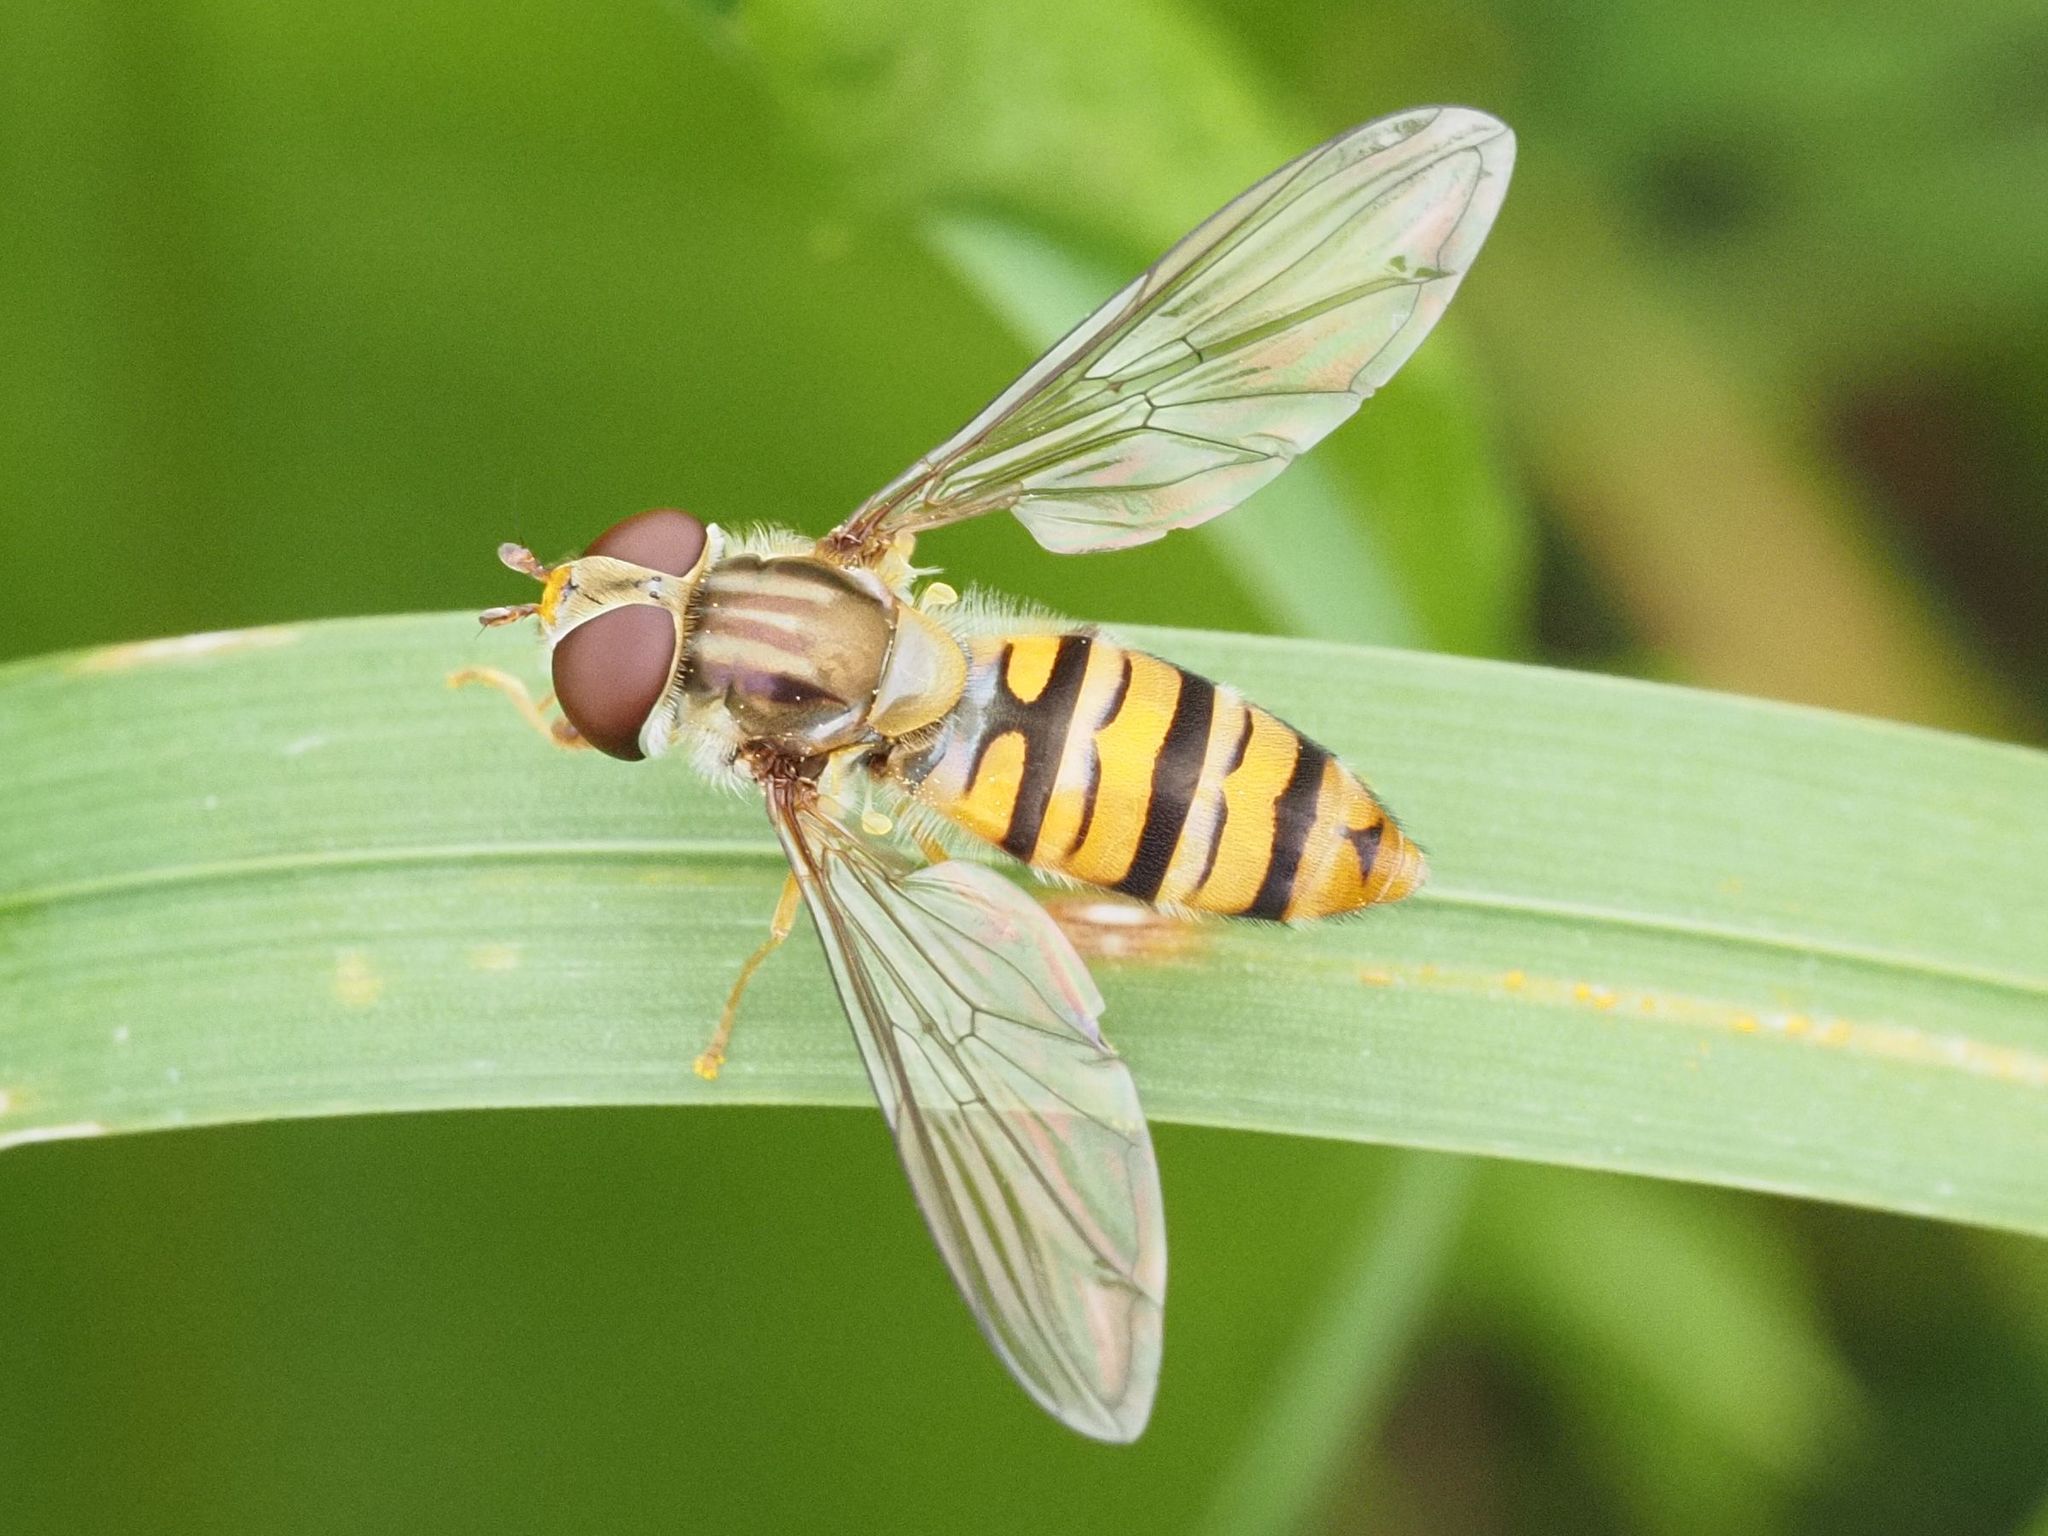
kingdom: Animalia
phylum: Arthropoda
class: Insecta
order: Diptera
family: Syrphidae
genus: Episyrphus
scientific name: Episyrphus balteatus
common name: Marmalade hoverfly
